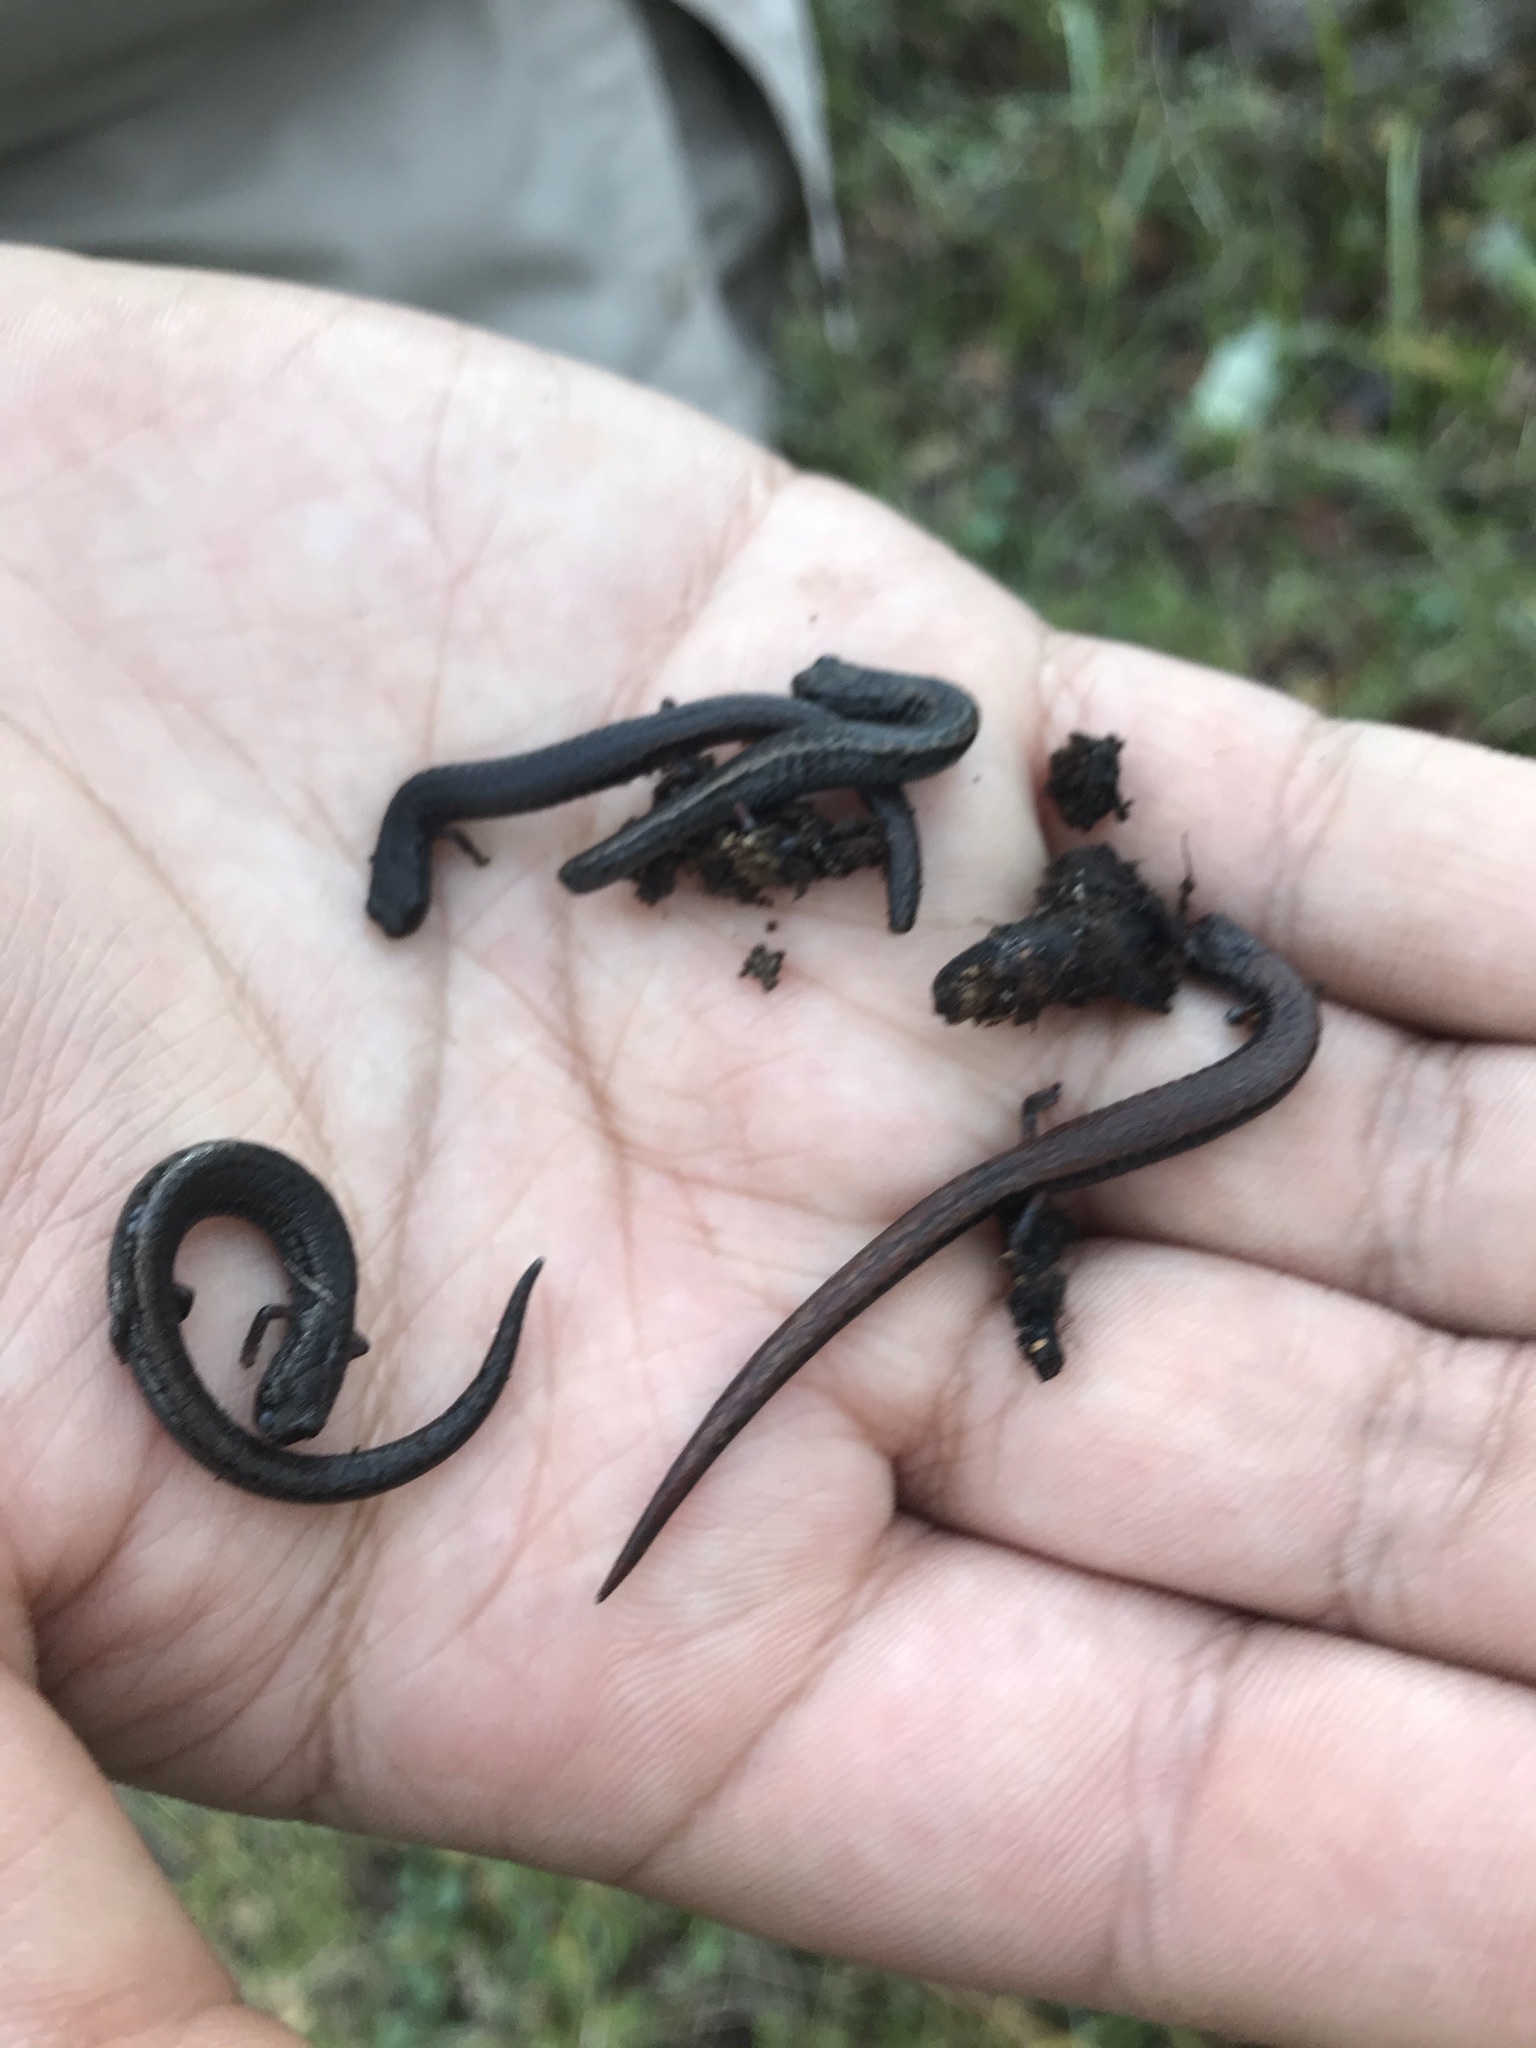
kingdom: Animalia
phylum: Chordata
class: Amphibia
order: Caudata
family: Plethodontidae
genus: Batrachoseps
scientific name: Batrachoseps attenuatus
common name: California slender salamander
